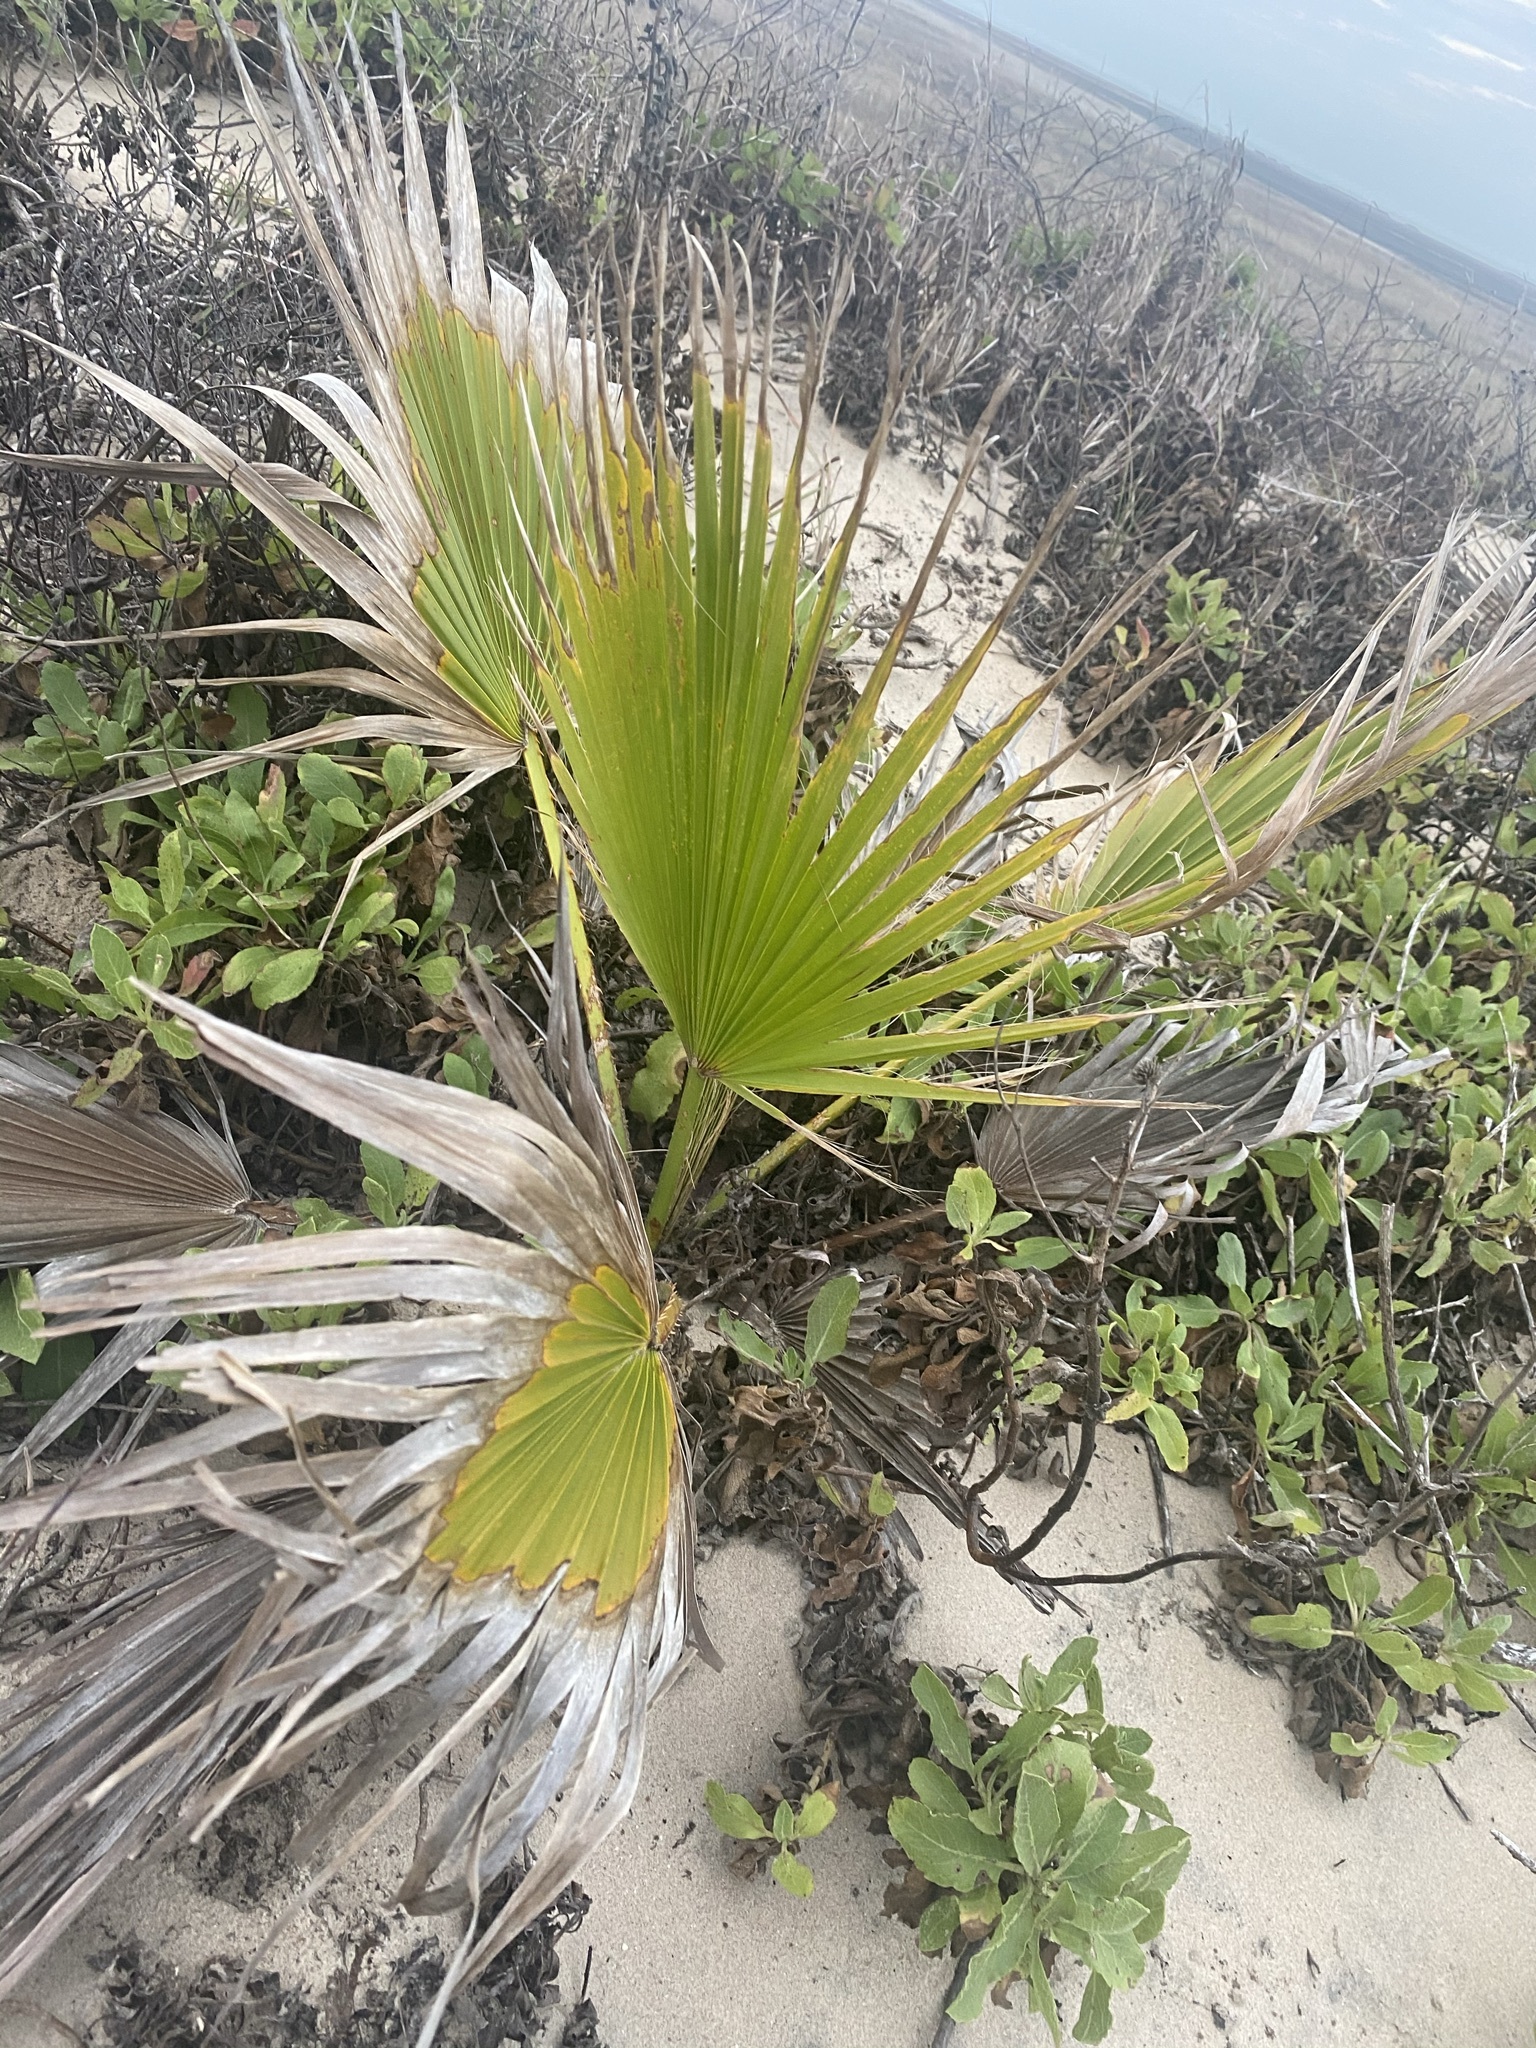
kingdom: Plantae
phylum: Tracheophyta
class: Liliopsida
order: Arecales
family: Arecaceae
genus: Washingtonia
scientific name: Washingtonia robusta
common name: Mexican fan palm
